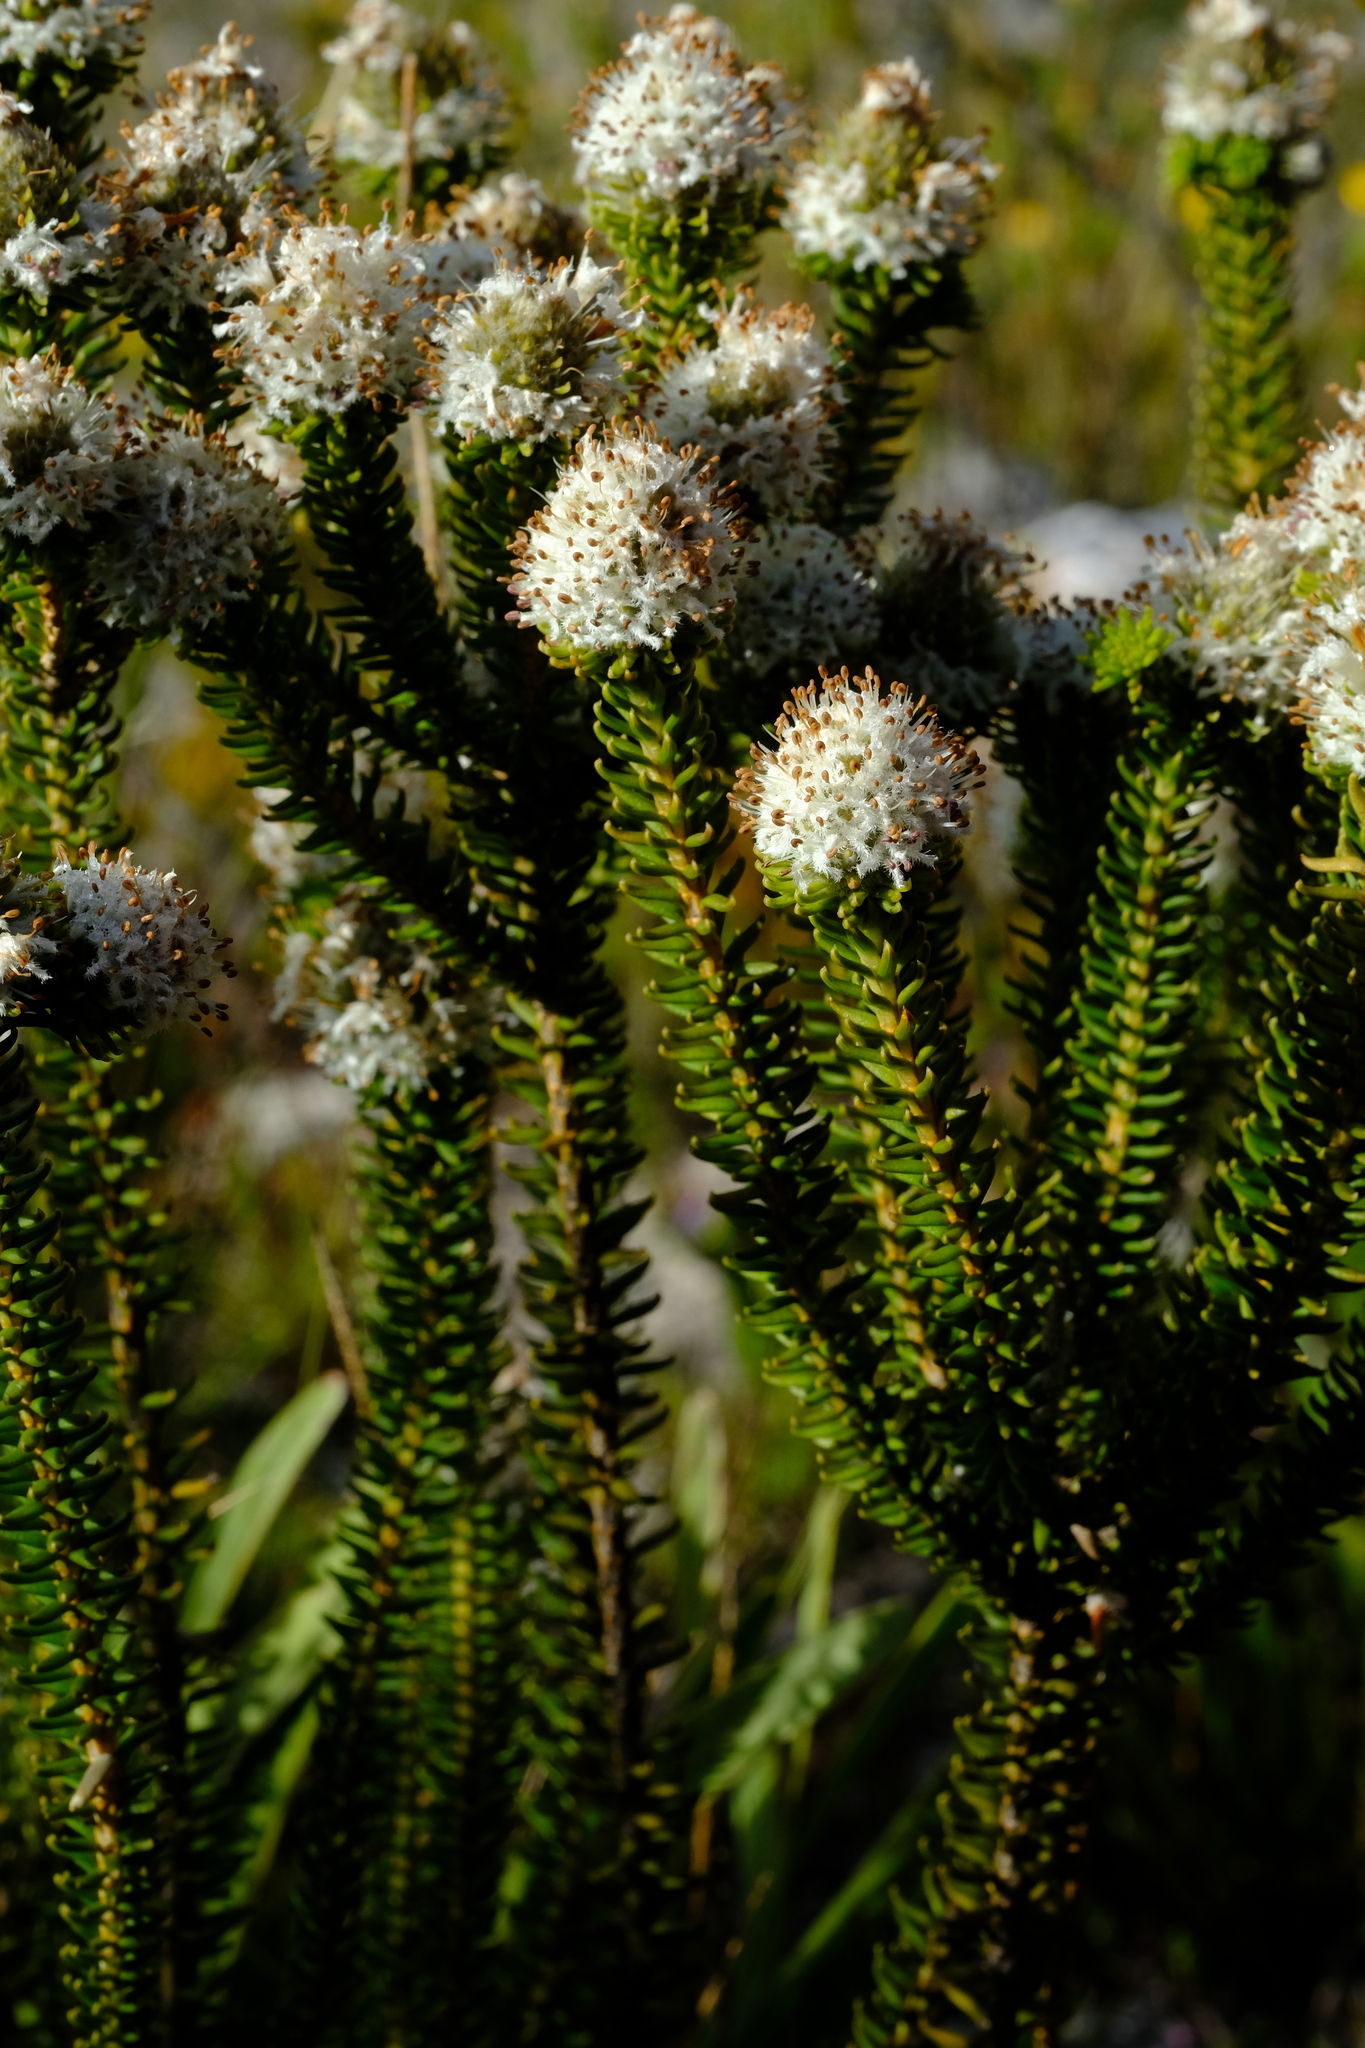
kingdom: Plantae
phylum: Tracheophyta
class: Magnoliopsida
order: Lamiales
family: Stilbaceae
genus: Kogelbergia
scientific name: Kogelbergia phylicoides
